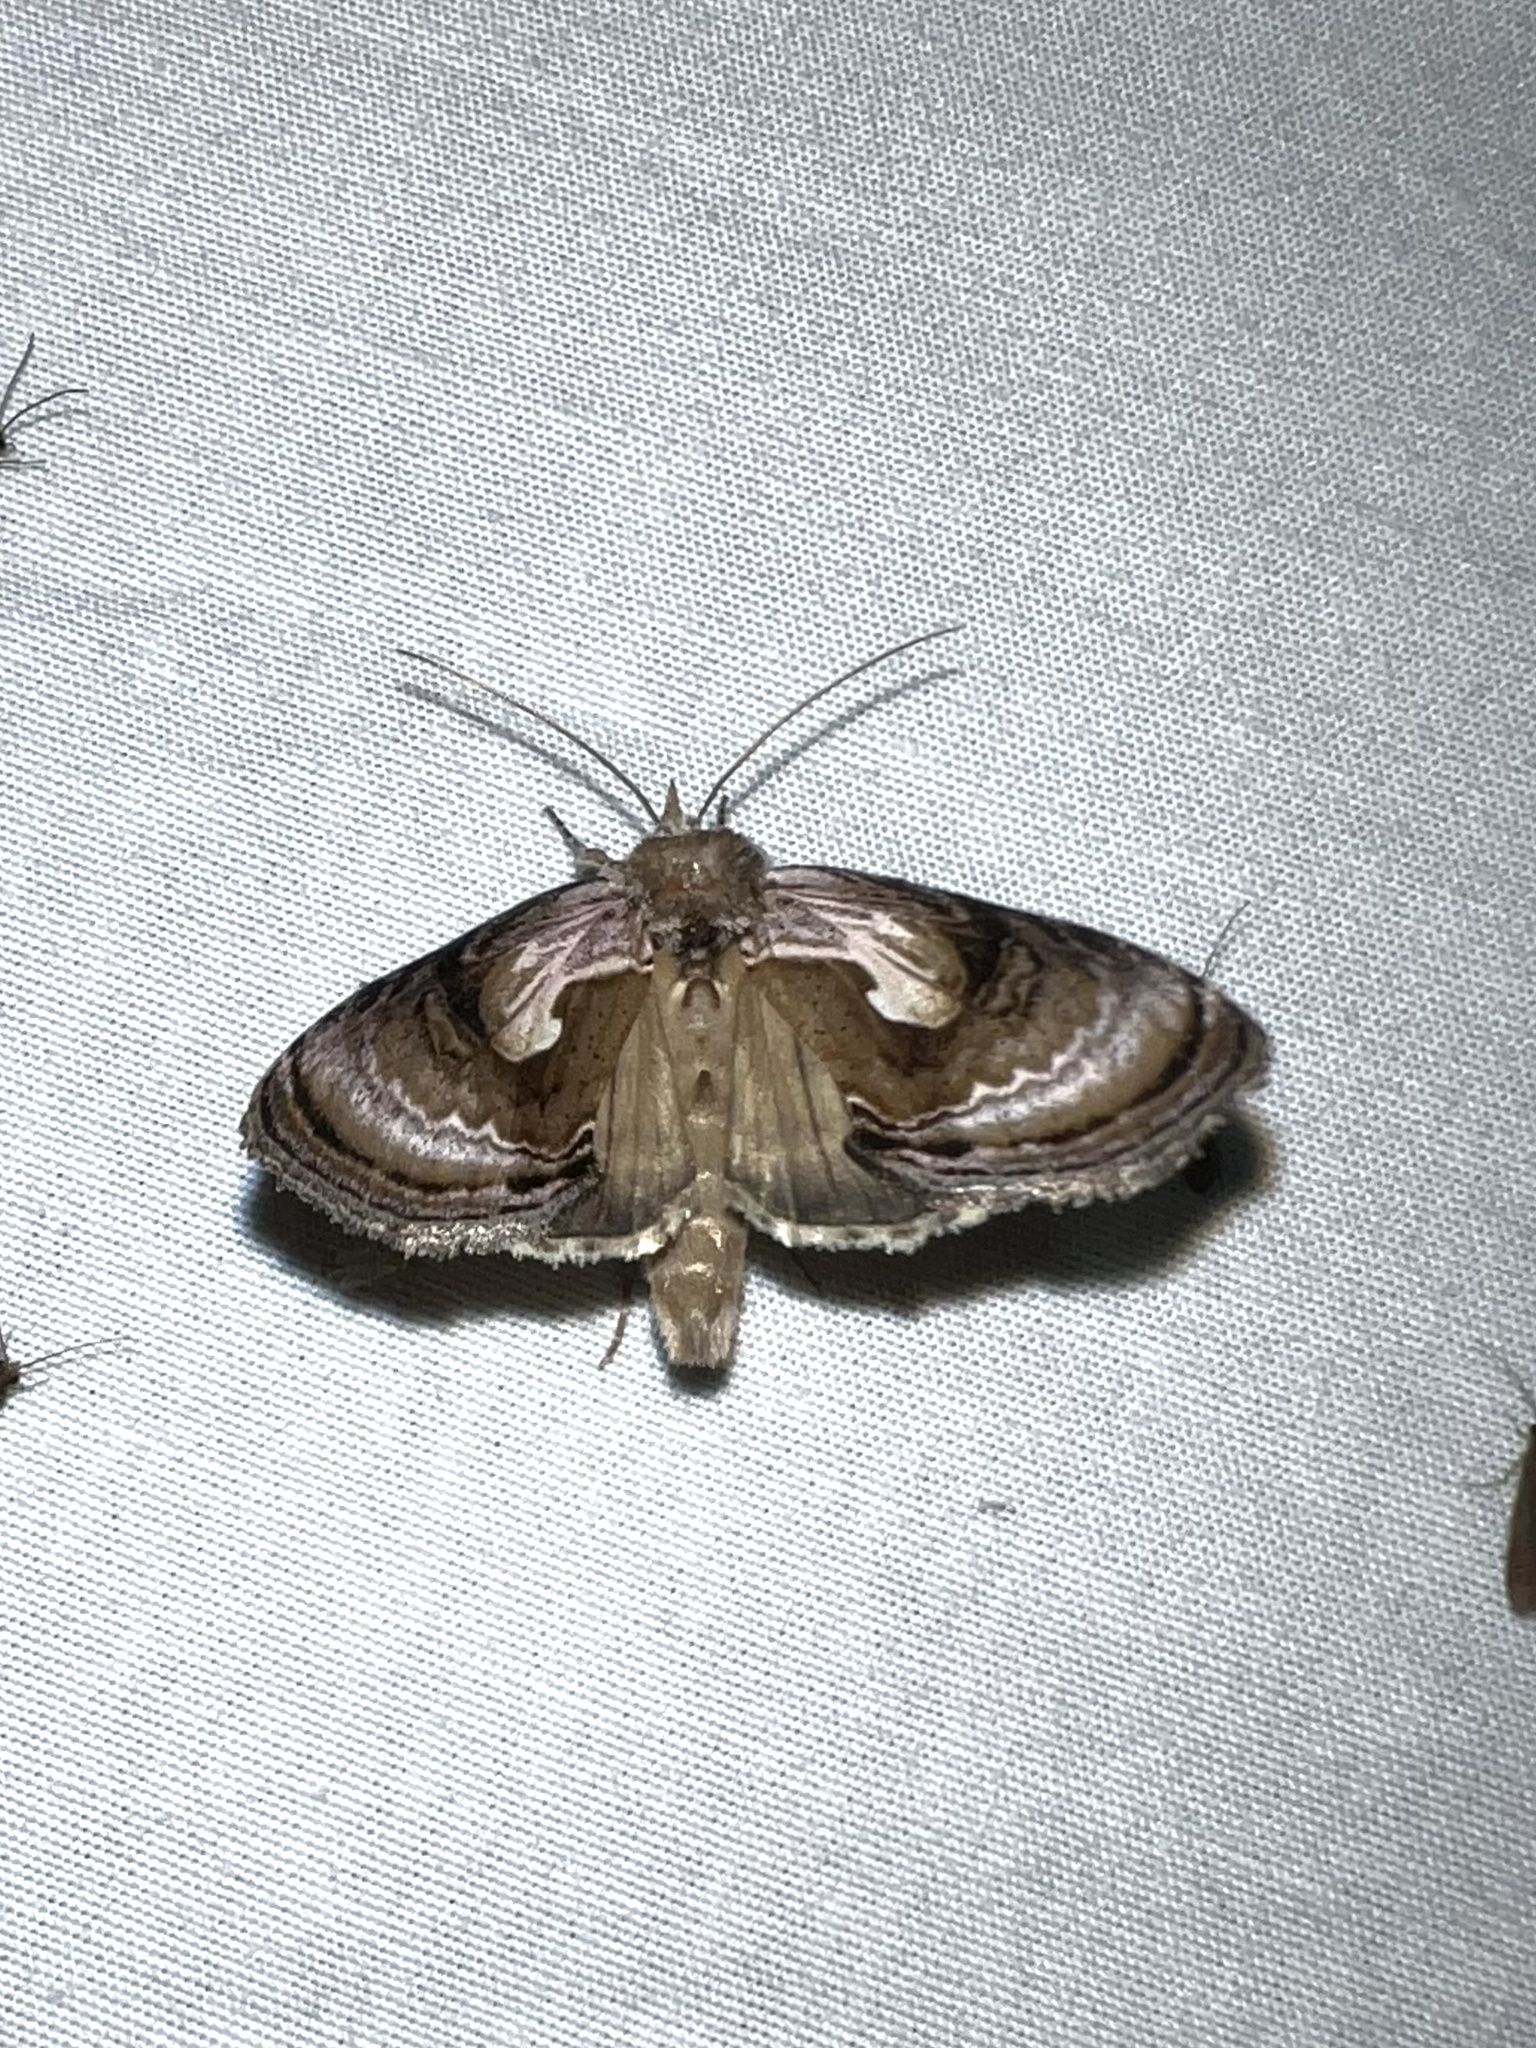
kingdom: Animalia
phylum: Arthropoda
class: Insecta
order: Lepidoptera
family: Noctuidae
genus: Chrysanympha
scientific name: Chrysanympha formosa
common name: Formosa looper moth
